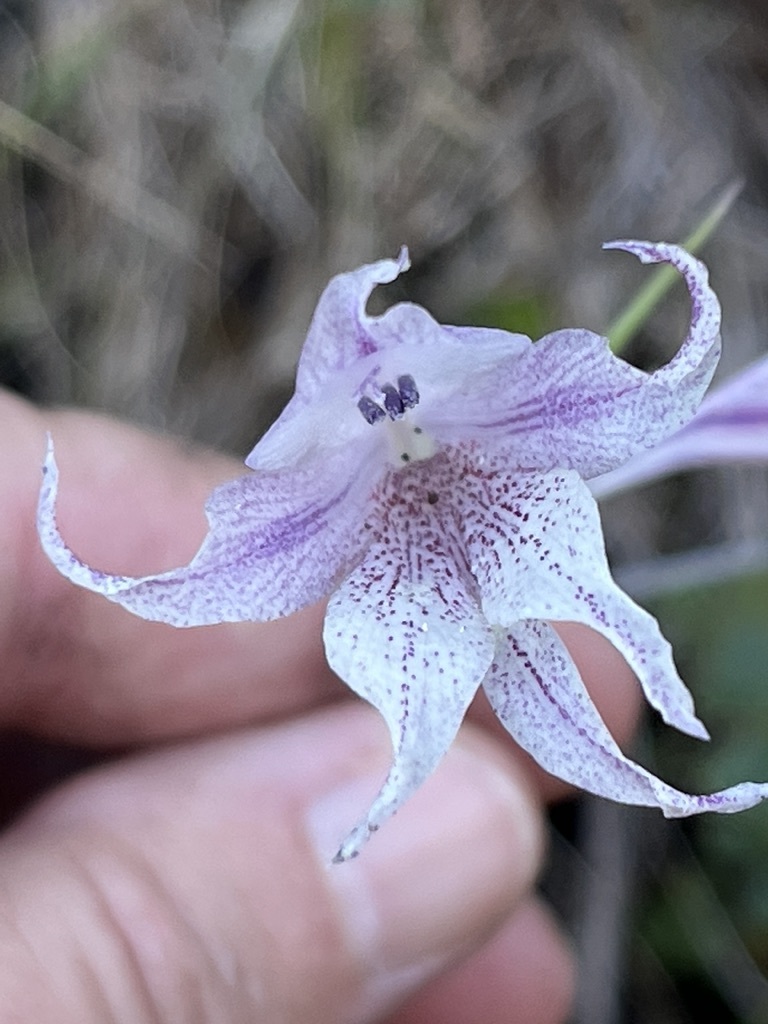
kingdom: Plantae
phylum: Tracheophyta
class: Liliopsida
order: Asparagales
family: Iridaceae
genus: Gladiolus
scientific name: Gladiolus maculatus
